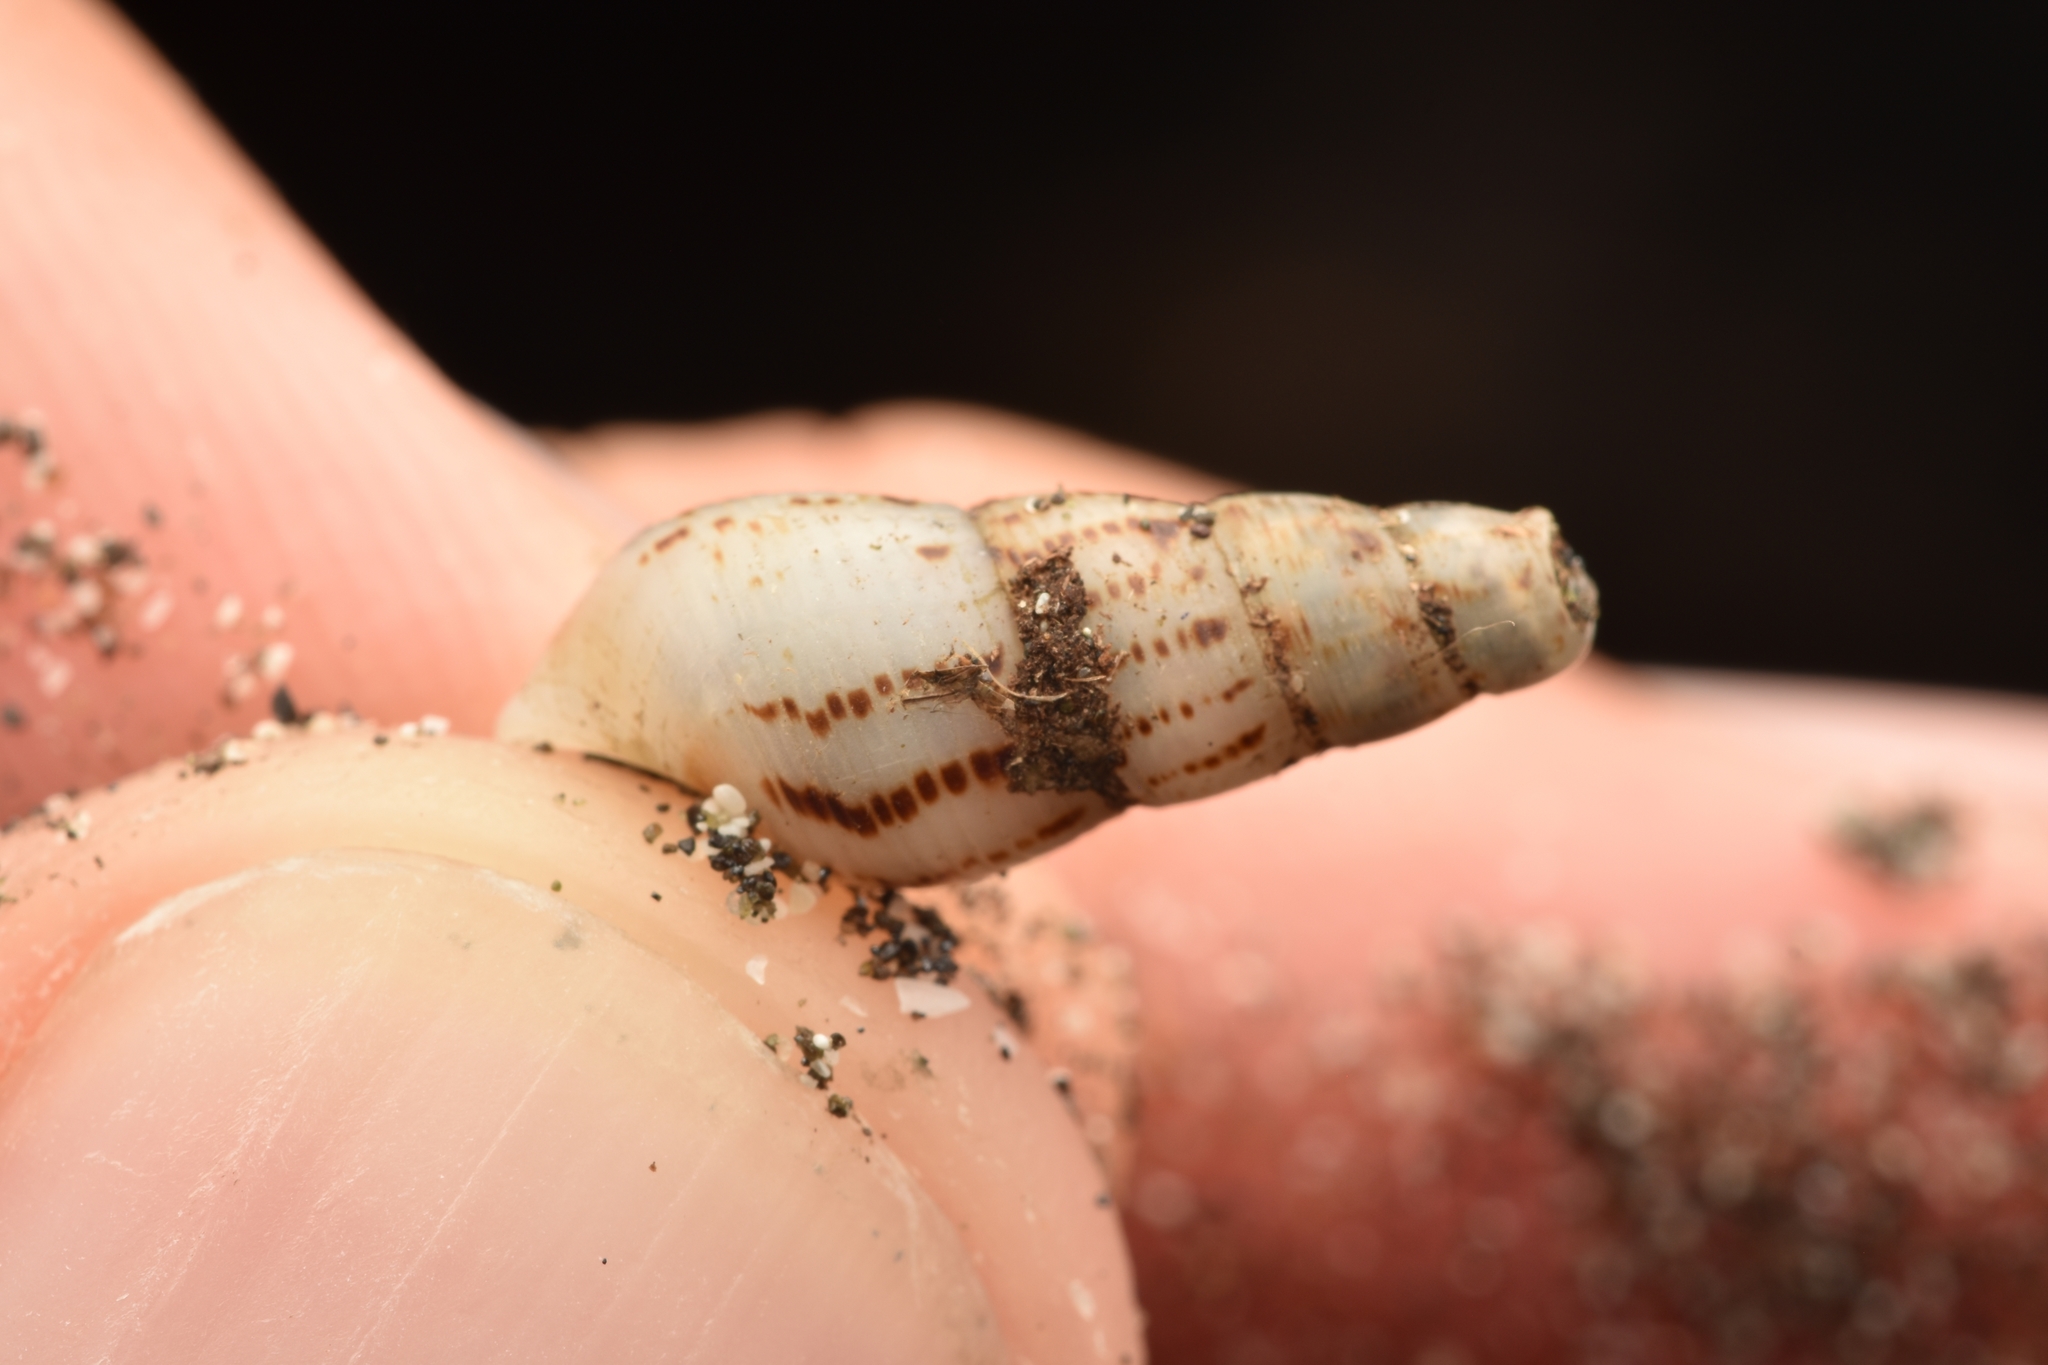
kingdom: Animalia
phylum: Mollusca
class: Gastropoda
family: Thiaridae
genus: Melanoides
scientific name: Melanoides tuberculata
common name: Red-rim melania
